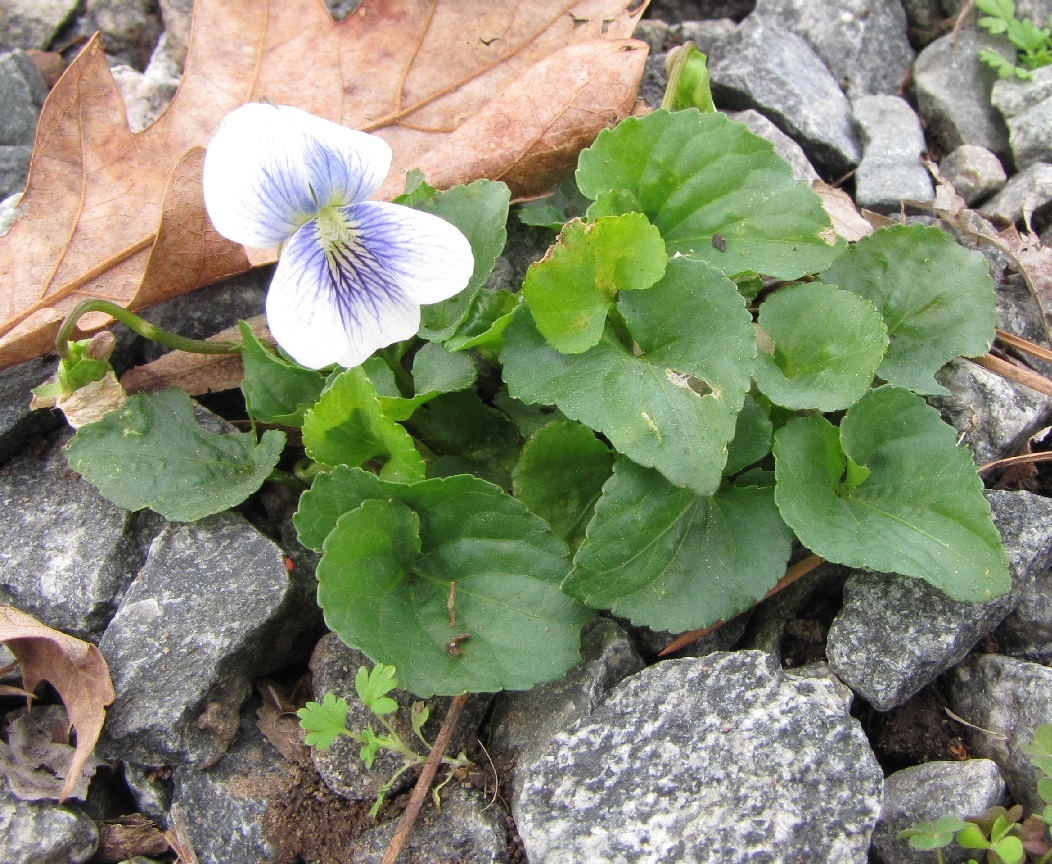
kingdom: Plantae
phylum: Tracheophyta
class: Magnoliopsida
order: Malpighiales
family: Violaceae
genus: Viola
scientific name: Viola sororia
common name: Dooryard violet
